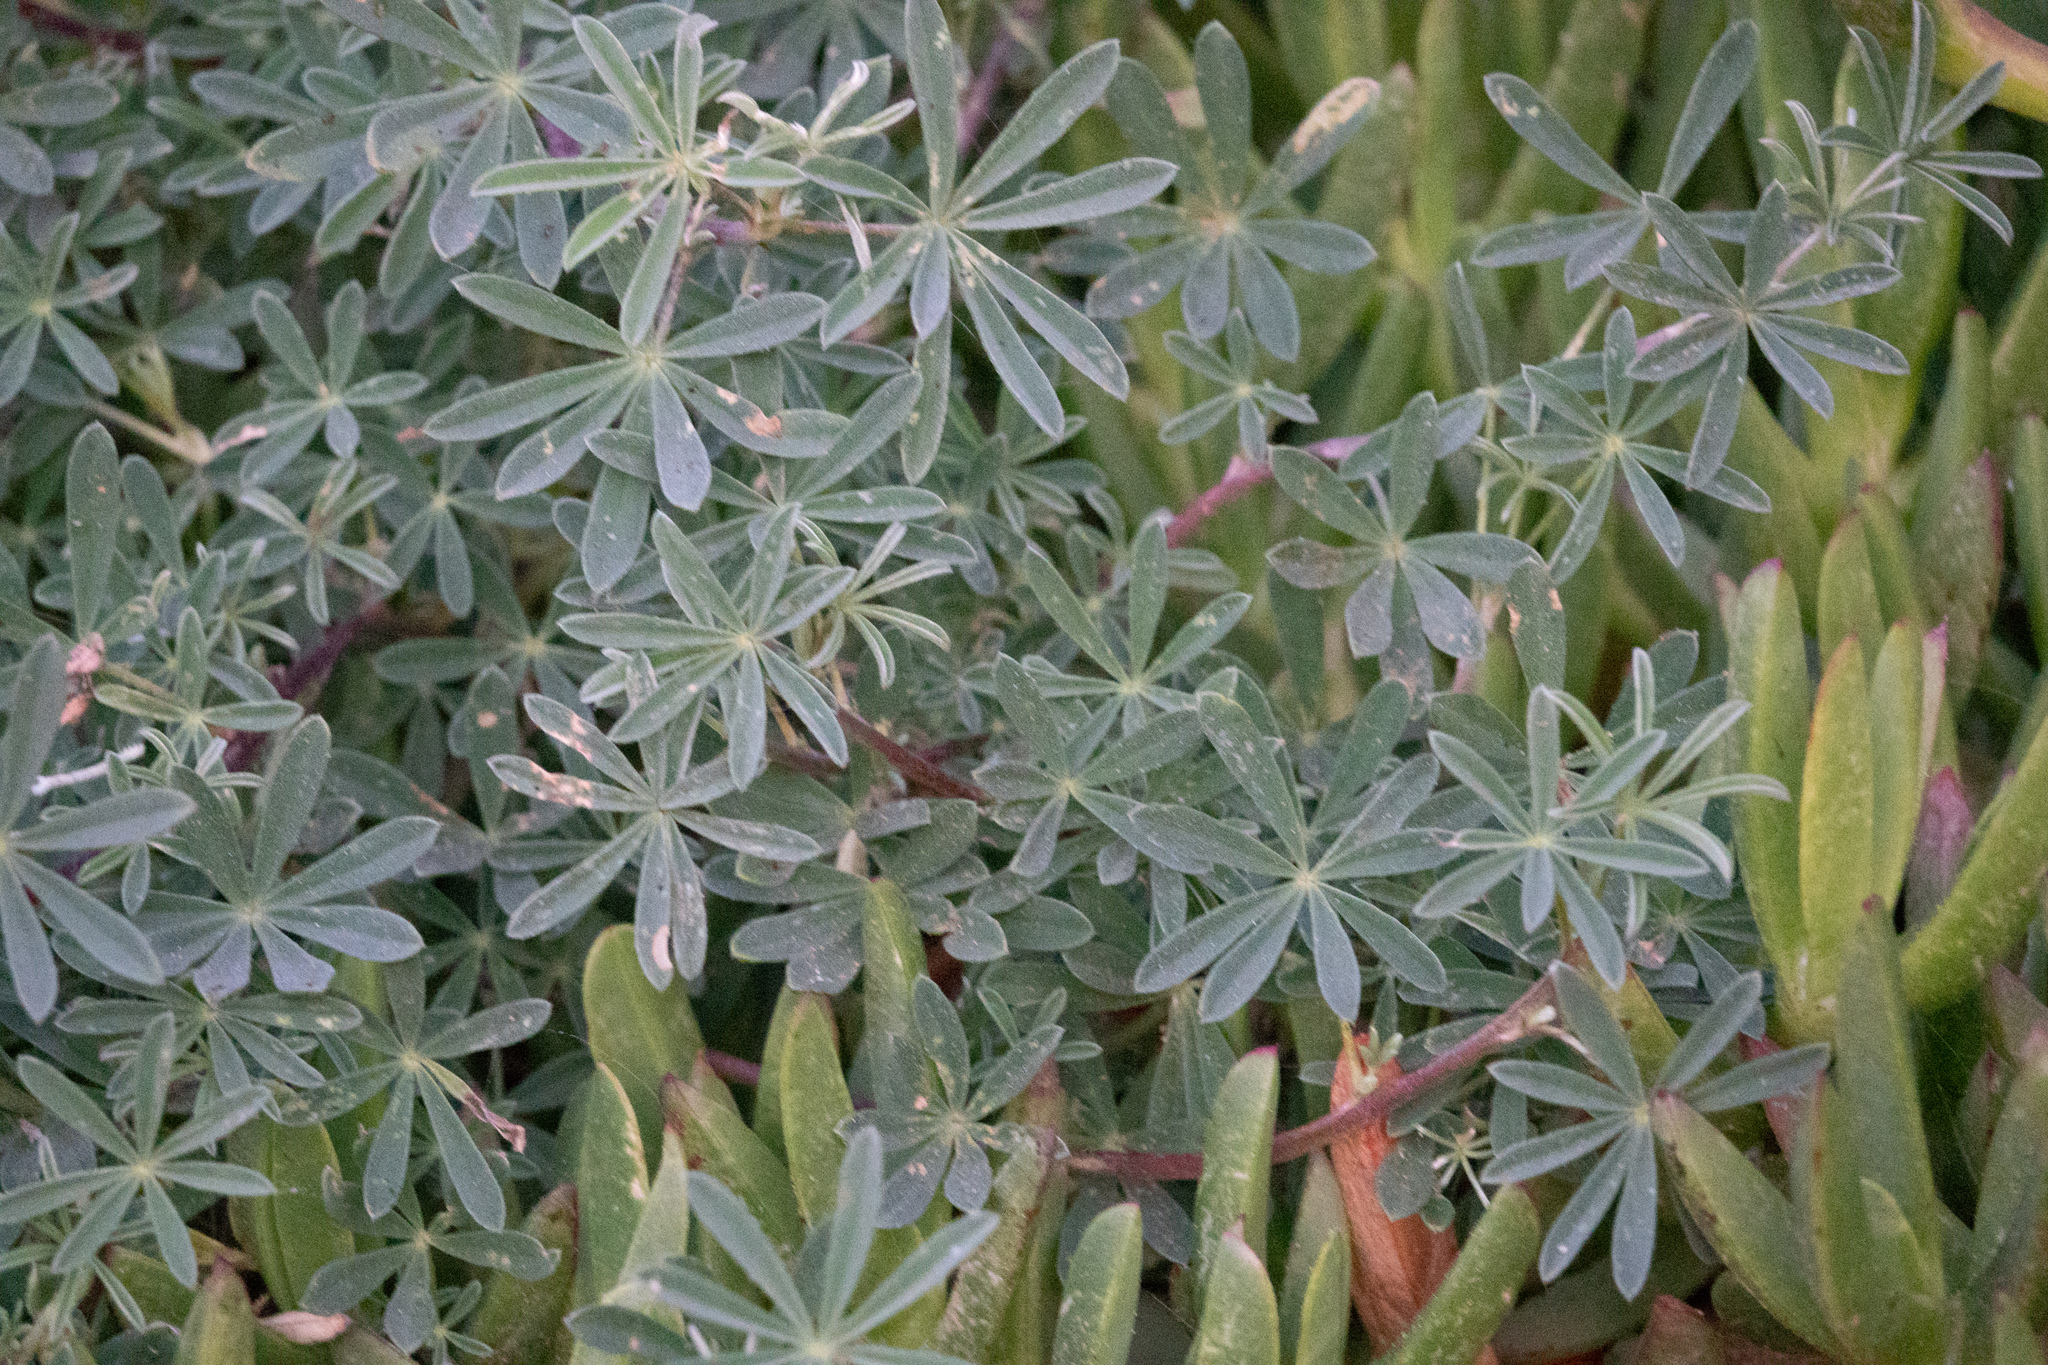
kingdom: Plantae
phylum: Tracheophyta
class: Magnoliopsida
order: Fabales
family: Fabaceae
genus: Lupinus
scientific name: Lupinus arboreus
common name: Yellow bush lupine
